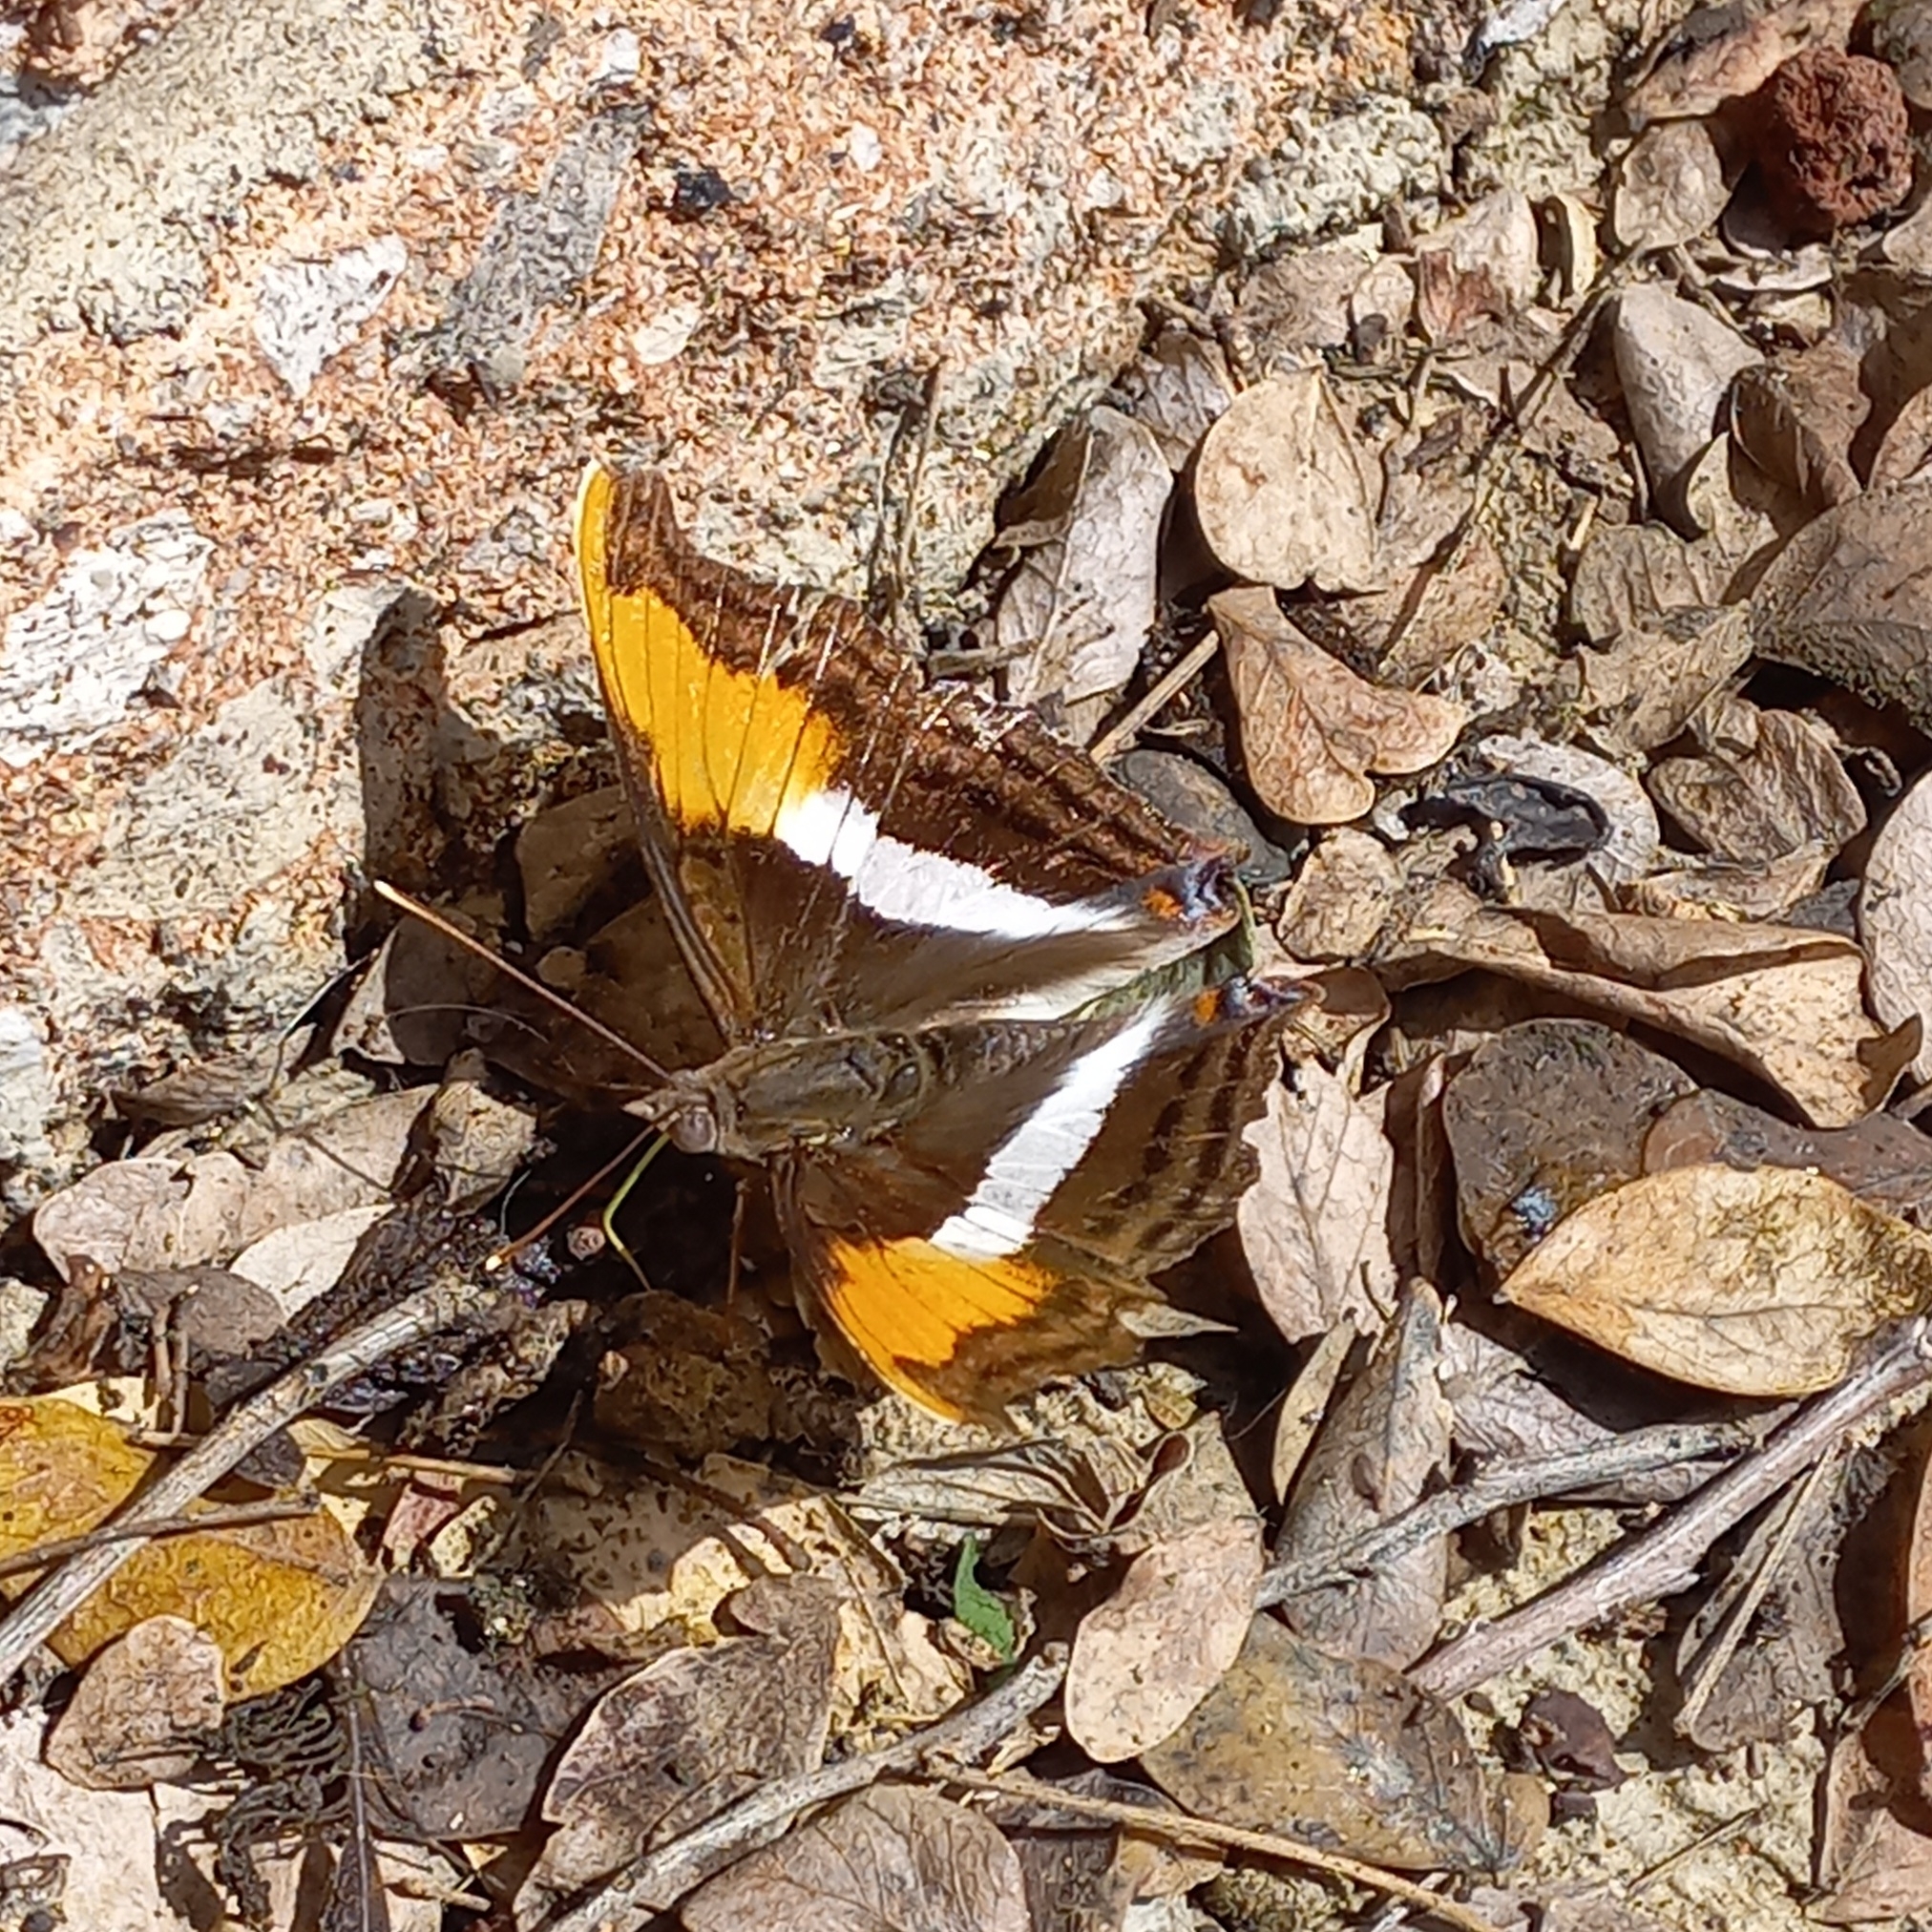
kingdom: Animalia
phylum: Arthropoda
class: Insecta
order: Lepidoptera
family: Nymphalidae
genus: Doxocopa
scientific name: Doxocopa laure
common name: Silver emperor
